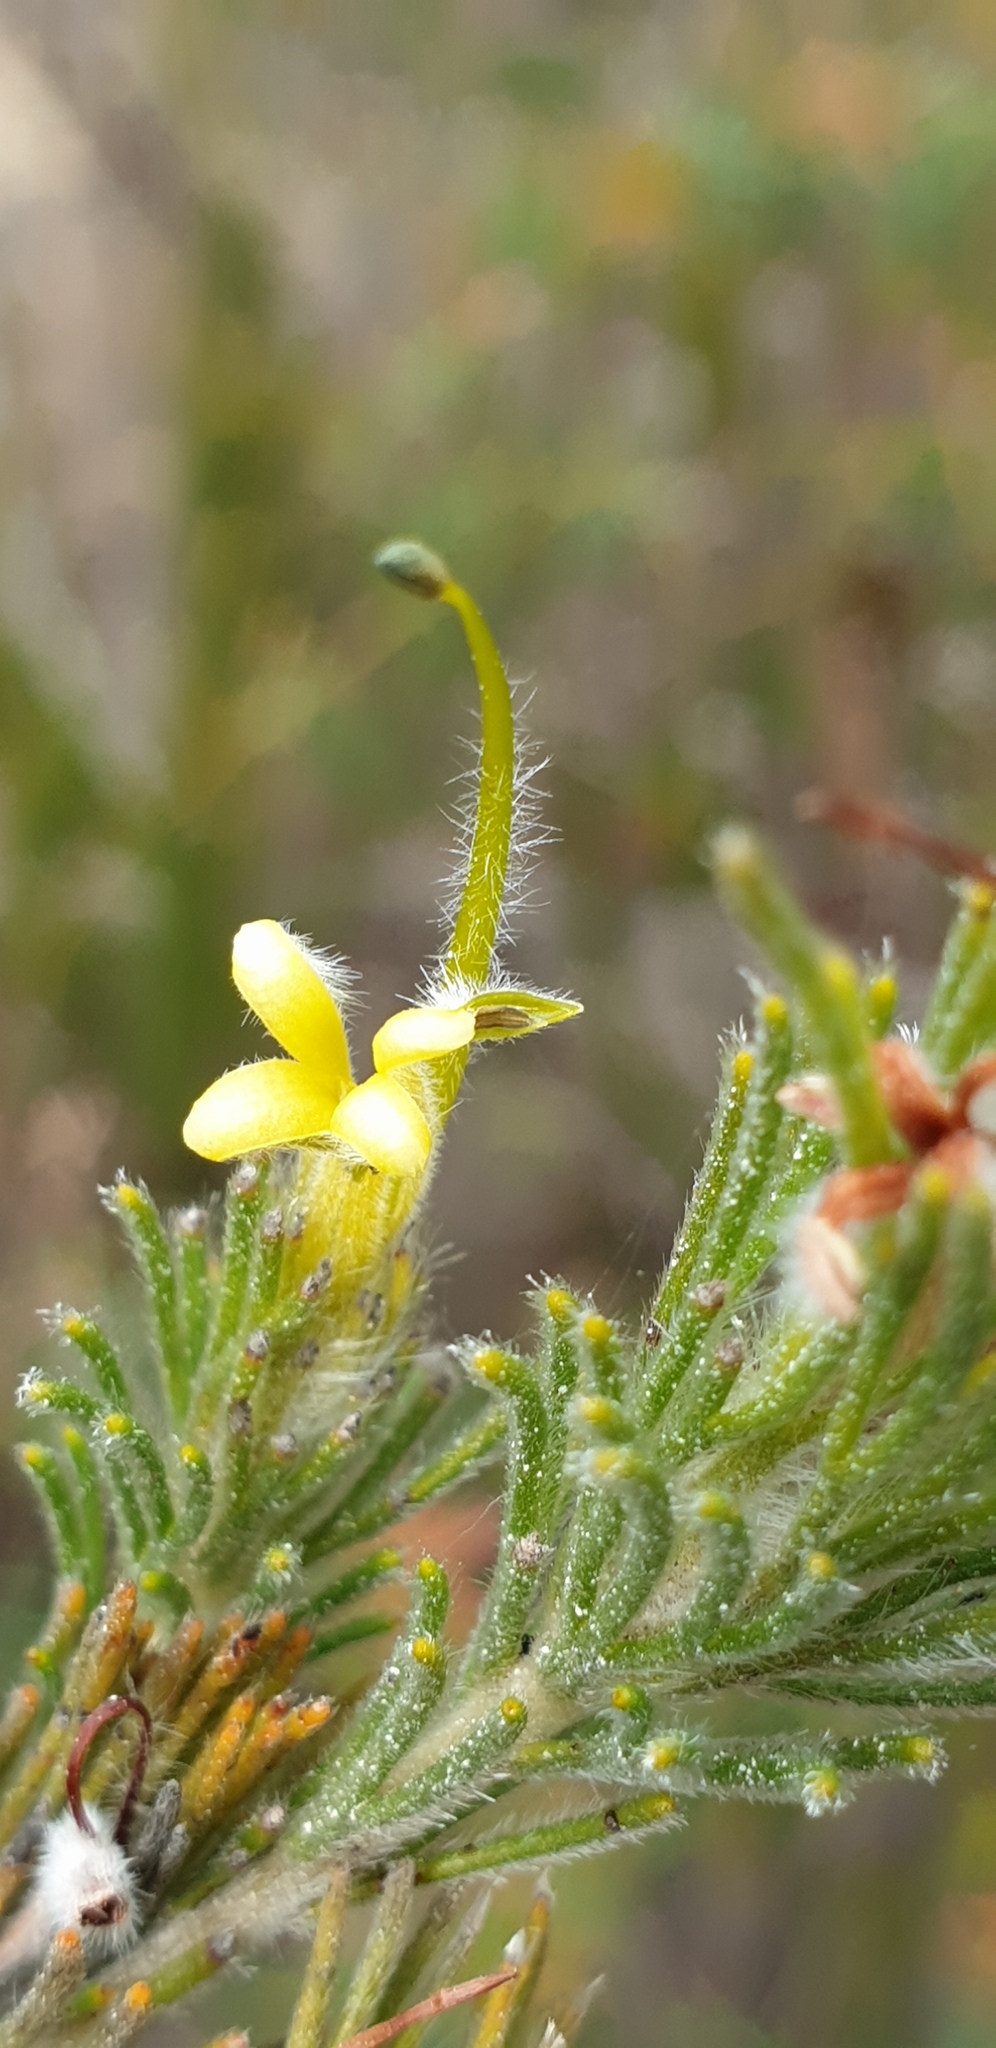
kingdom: Plantae
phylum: Tracheophyta
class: Magnoliopsida
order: Proteales
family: Proteaceae
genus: Adenanthos
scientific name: Adenanthos terminalis
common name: Yellow gland-flower
